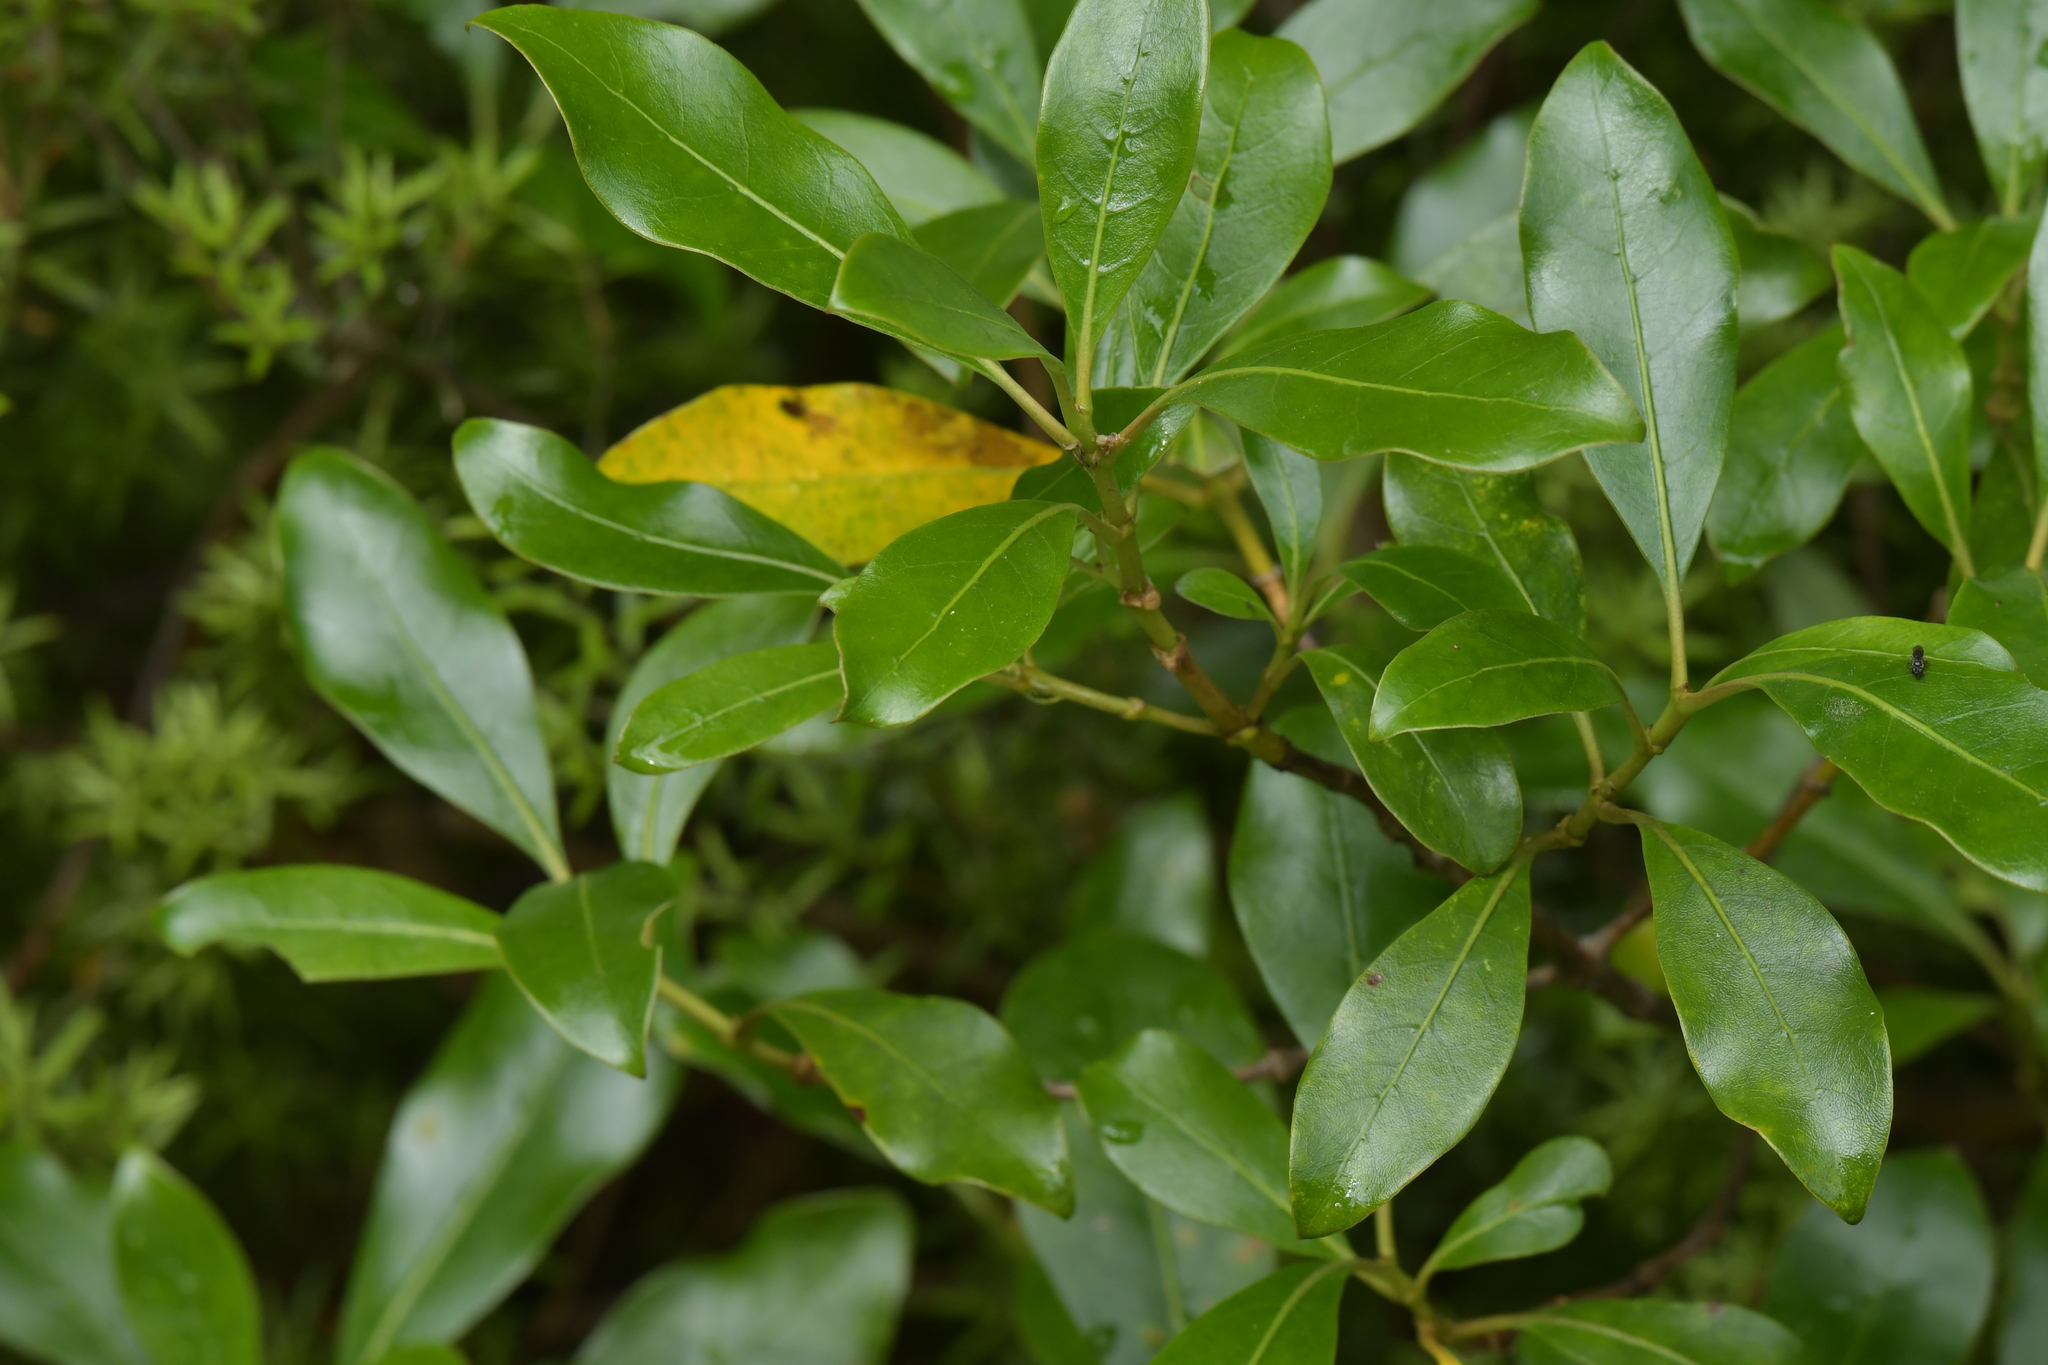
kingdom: Plantae
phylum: Tracheophyta
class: Magnoliopsida
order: Gentianales
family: Rubiaceae
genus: Coprosma
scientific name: Coprosma lucida
